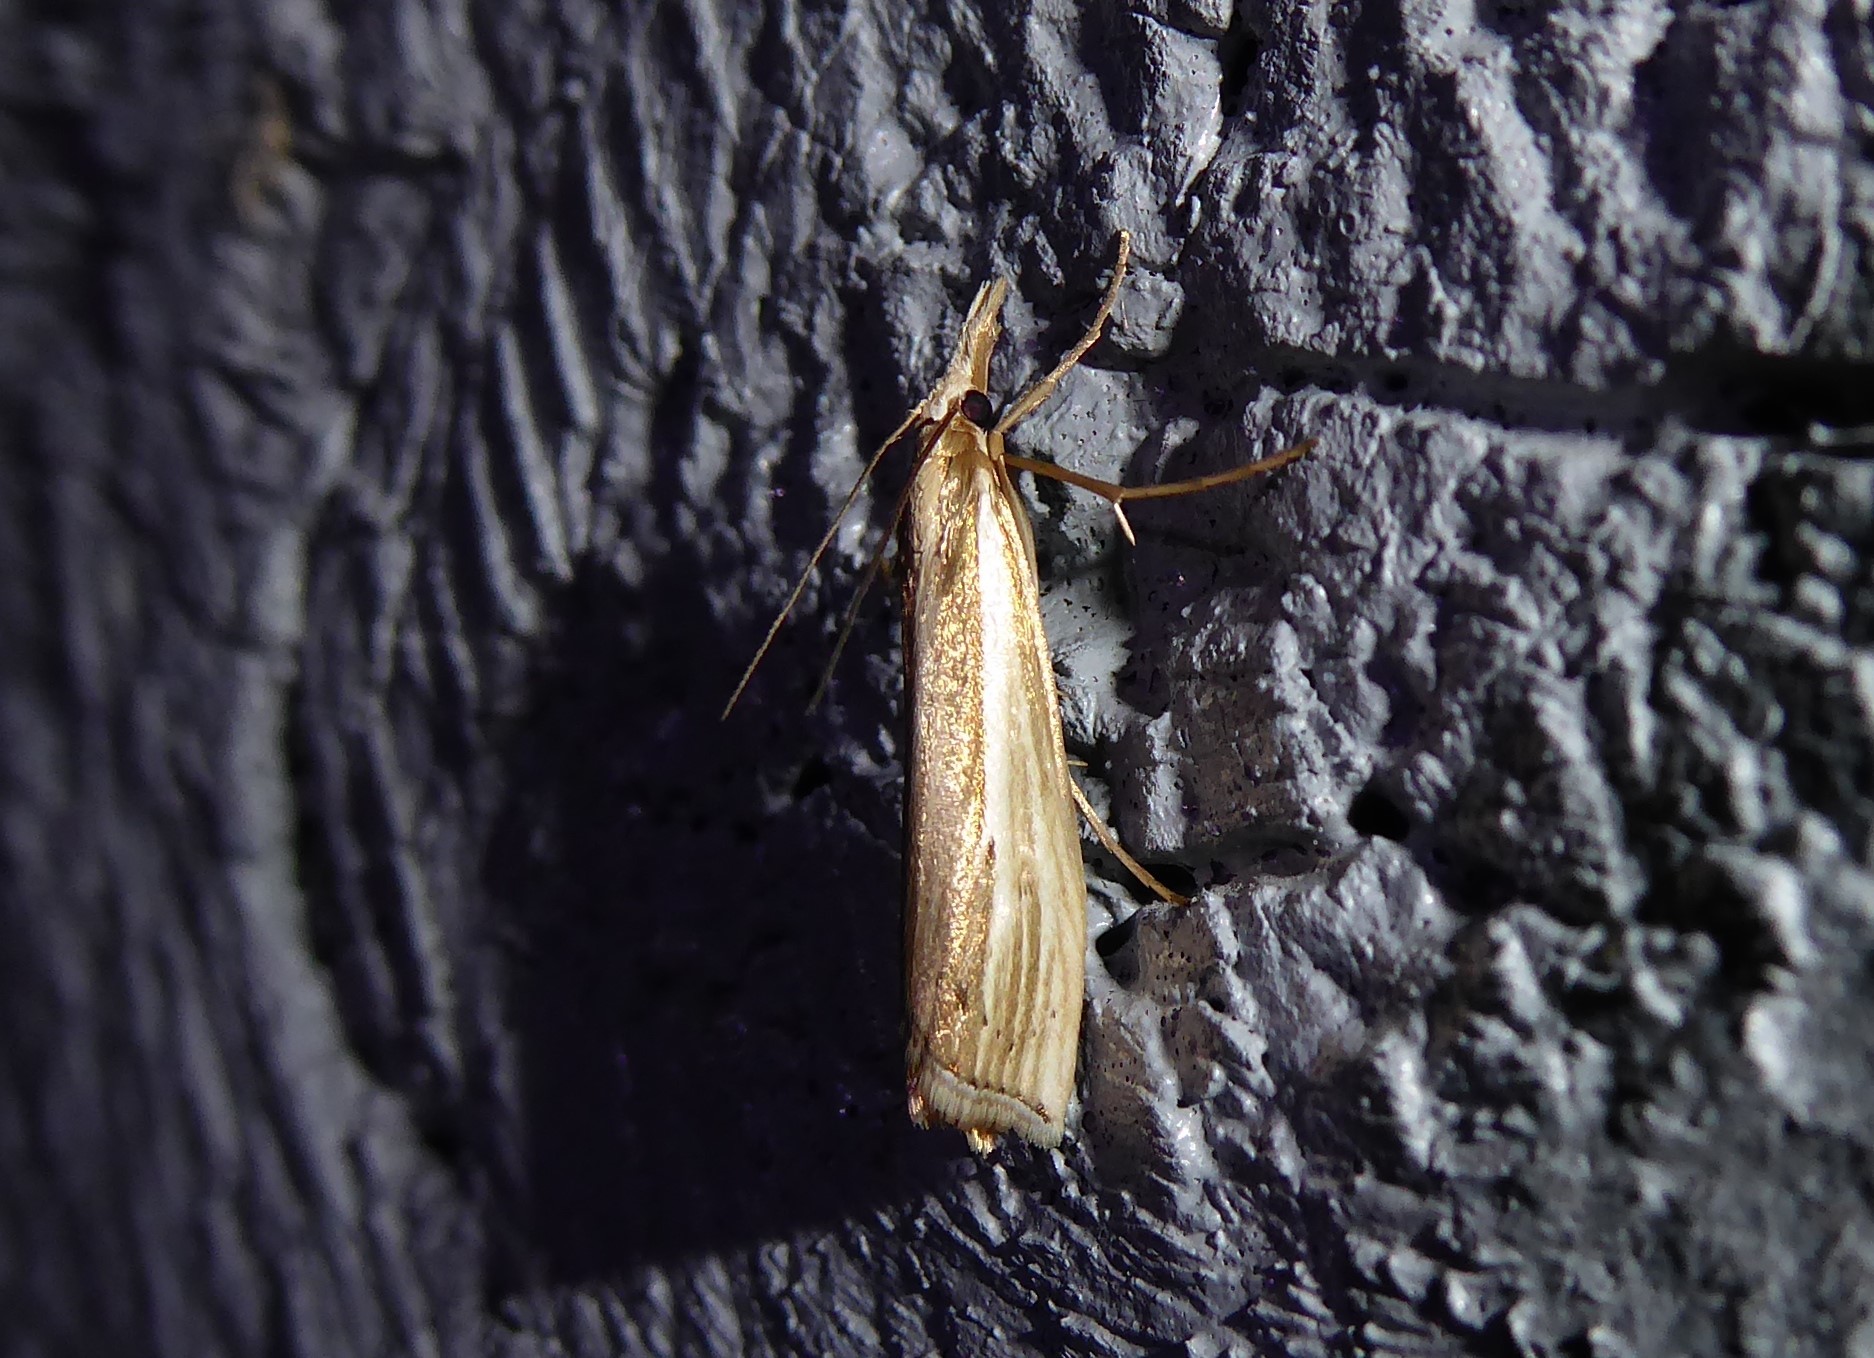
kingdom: Animalia
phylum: Arthropoda
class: Insecta
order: Lepidoptera
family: Crambidae
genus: Orocrambus
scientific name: Orocrambus ramosellus
